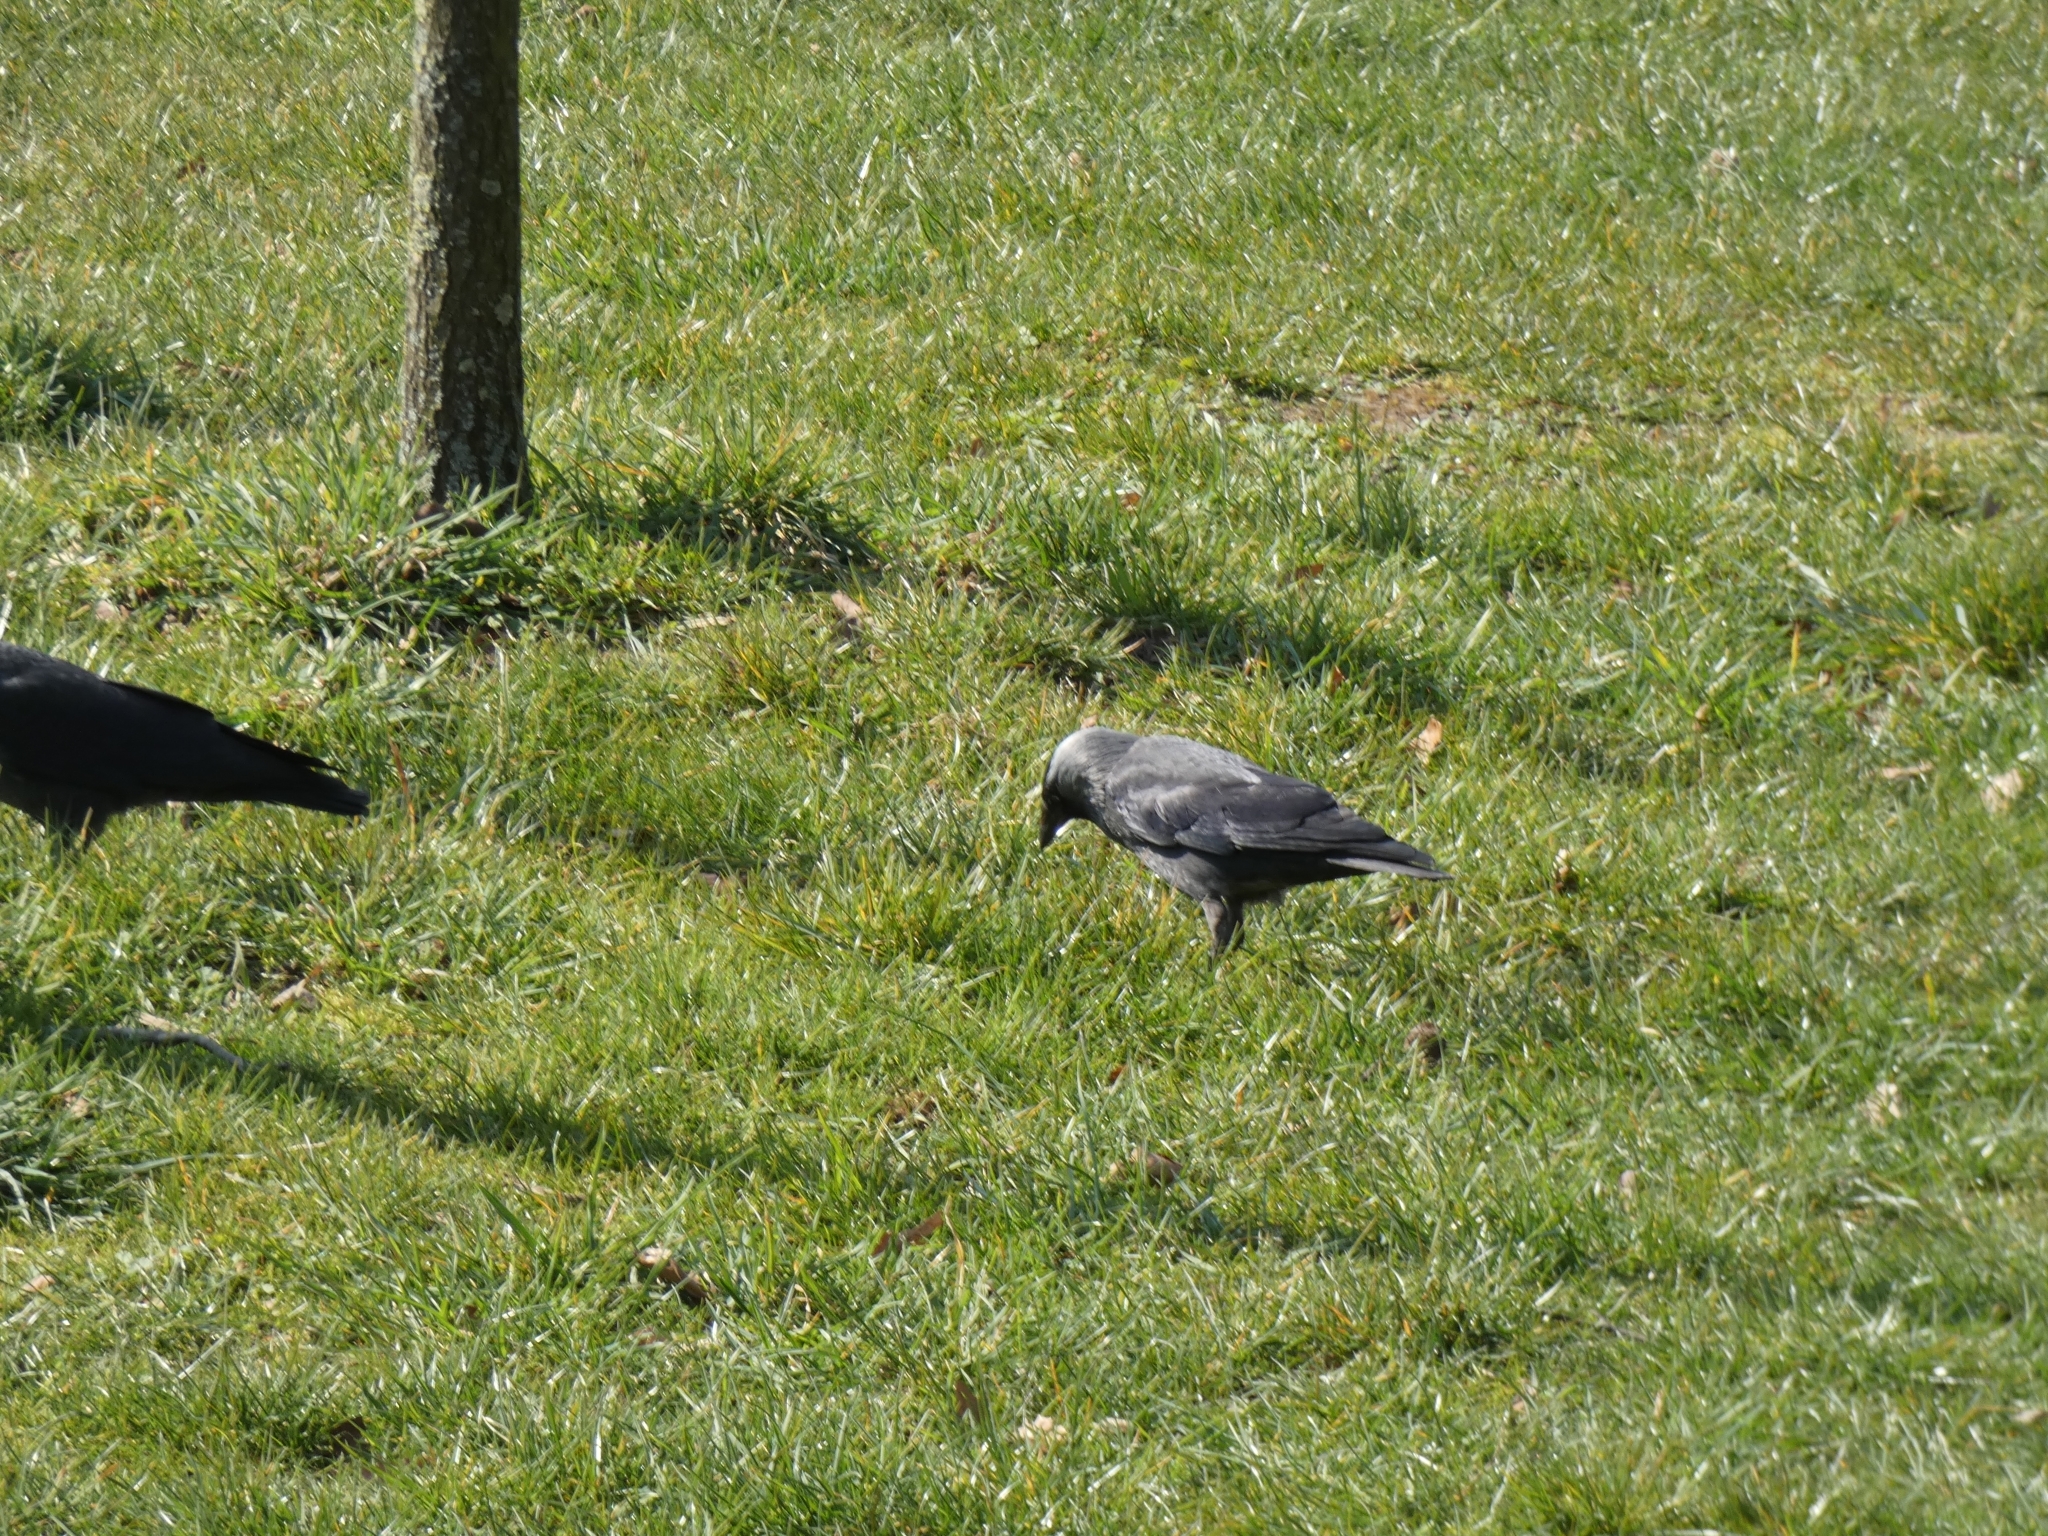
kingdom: Animalia
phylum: Chordata
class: Aves
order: Passeriformes
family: Corvidae
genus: Coloeus
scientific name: Coloeus monedula
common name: Western jackdaw
